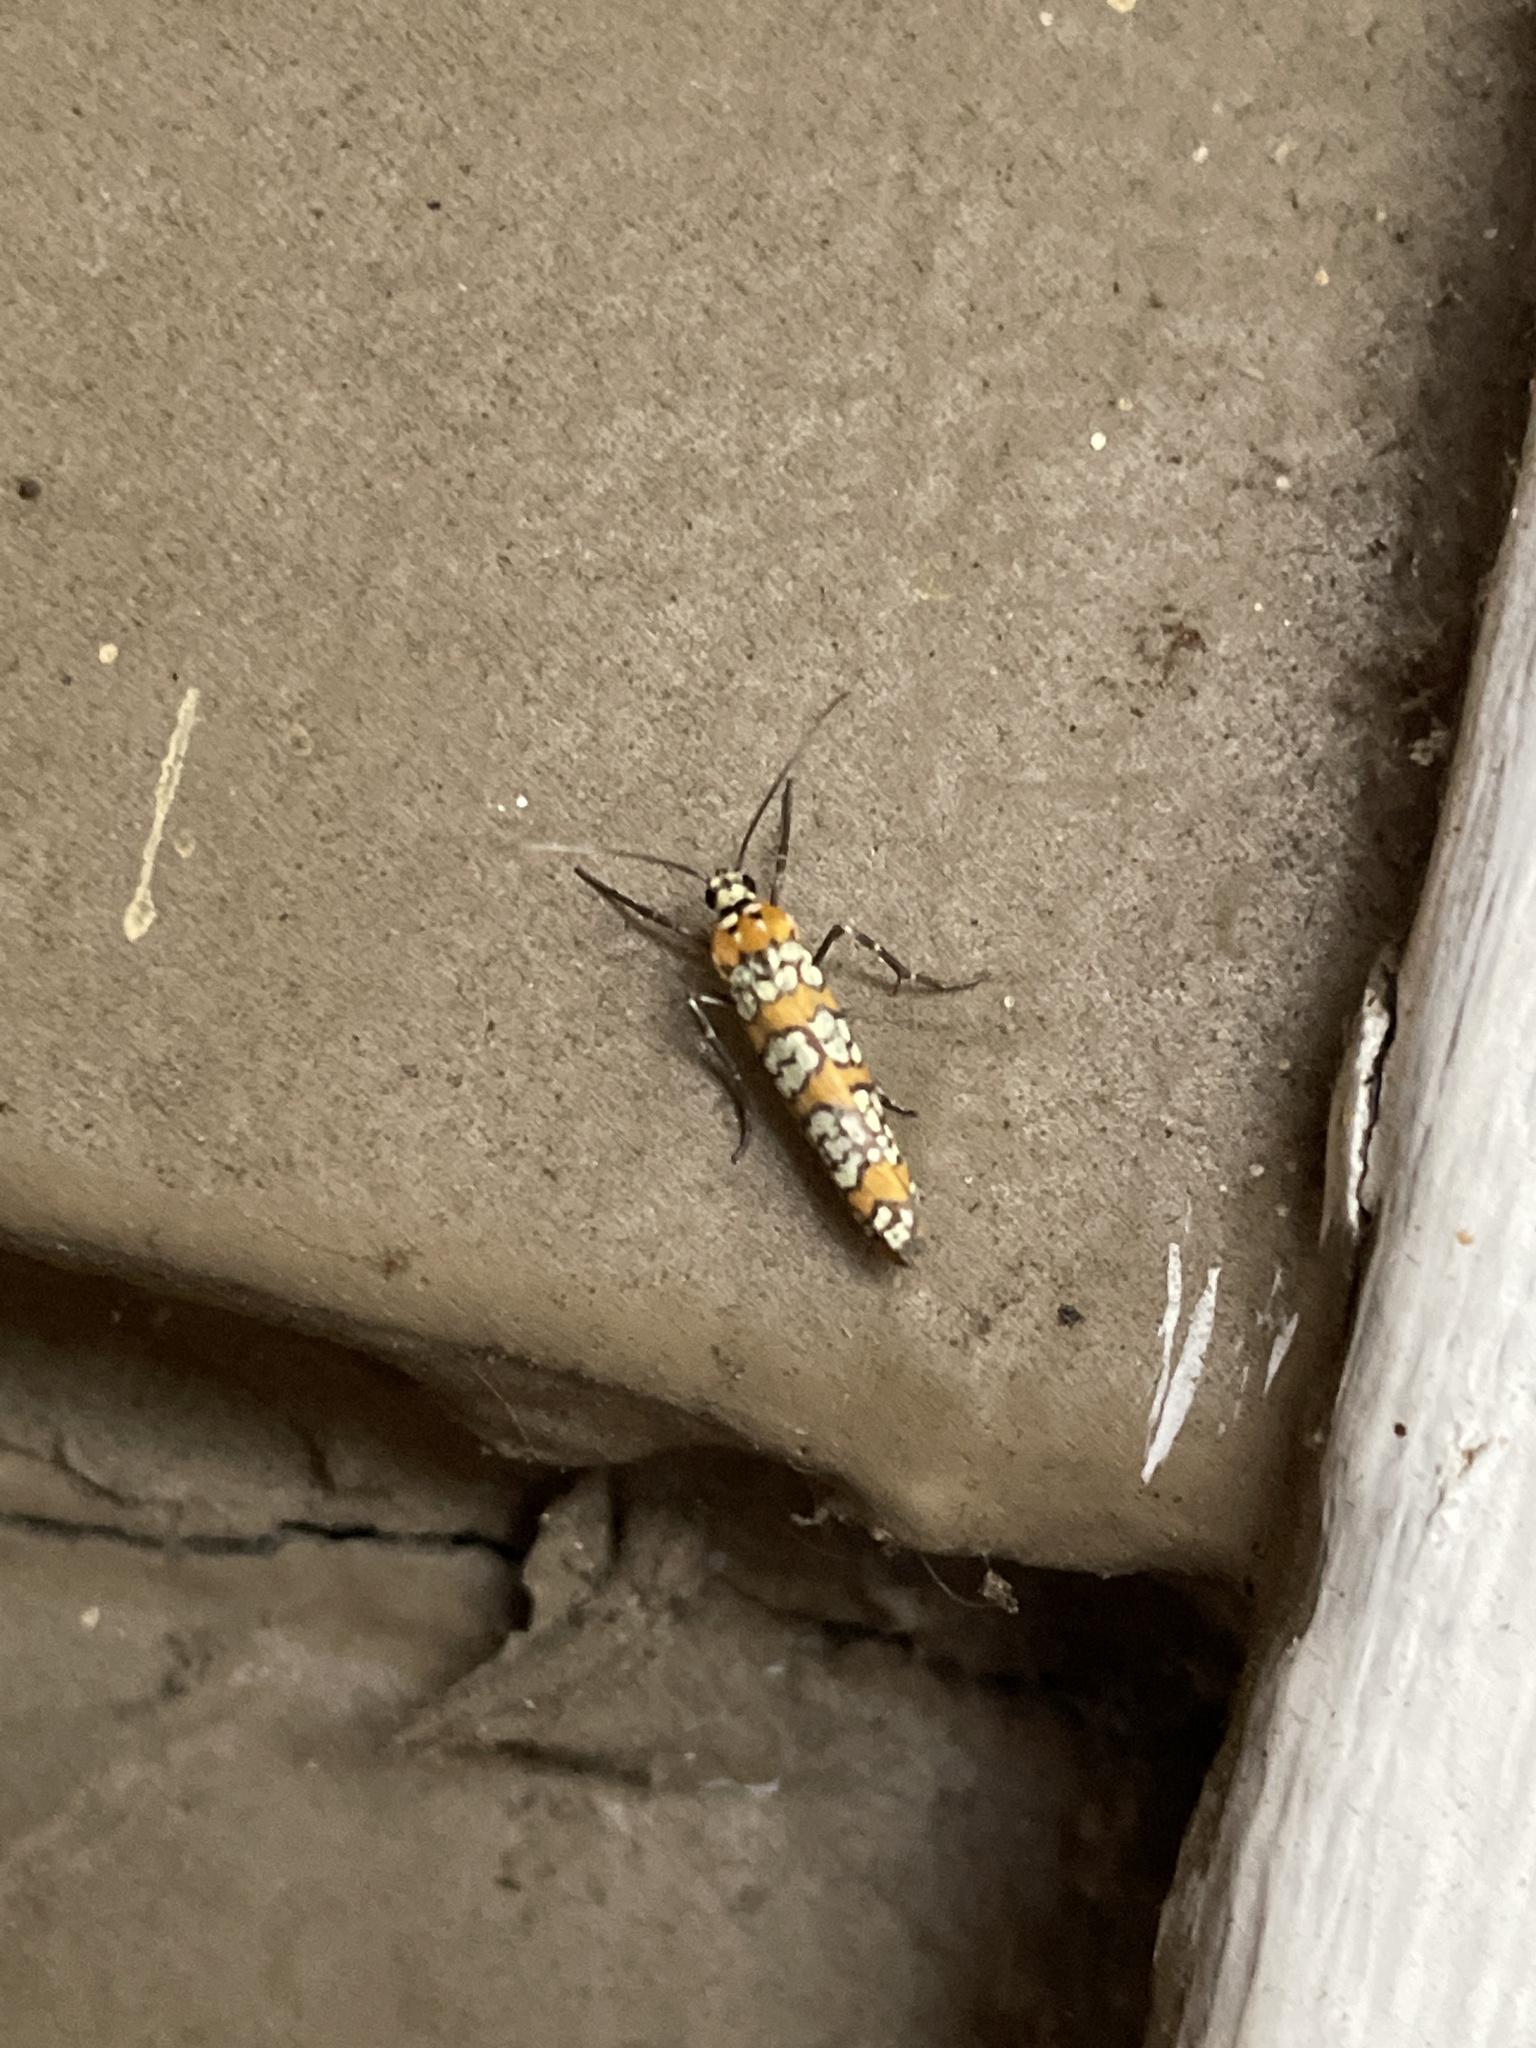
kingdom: Animalia
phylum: Arthropoda
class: Insecta
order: Lepidoptera
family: Attevidae
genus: Atteva
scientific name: Atteva punctella
